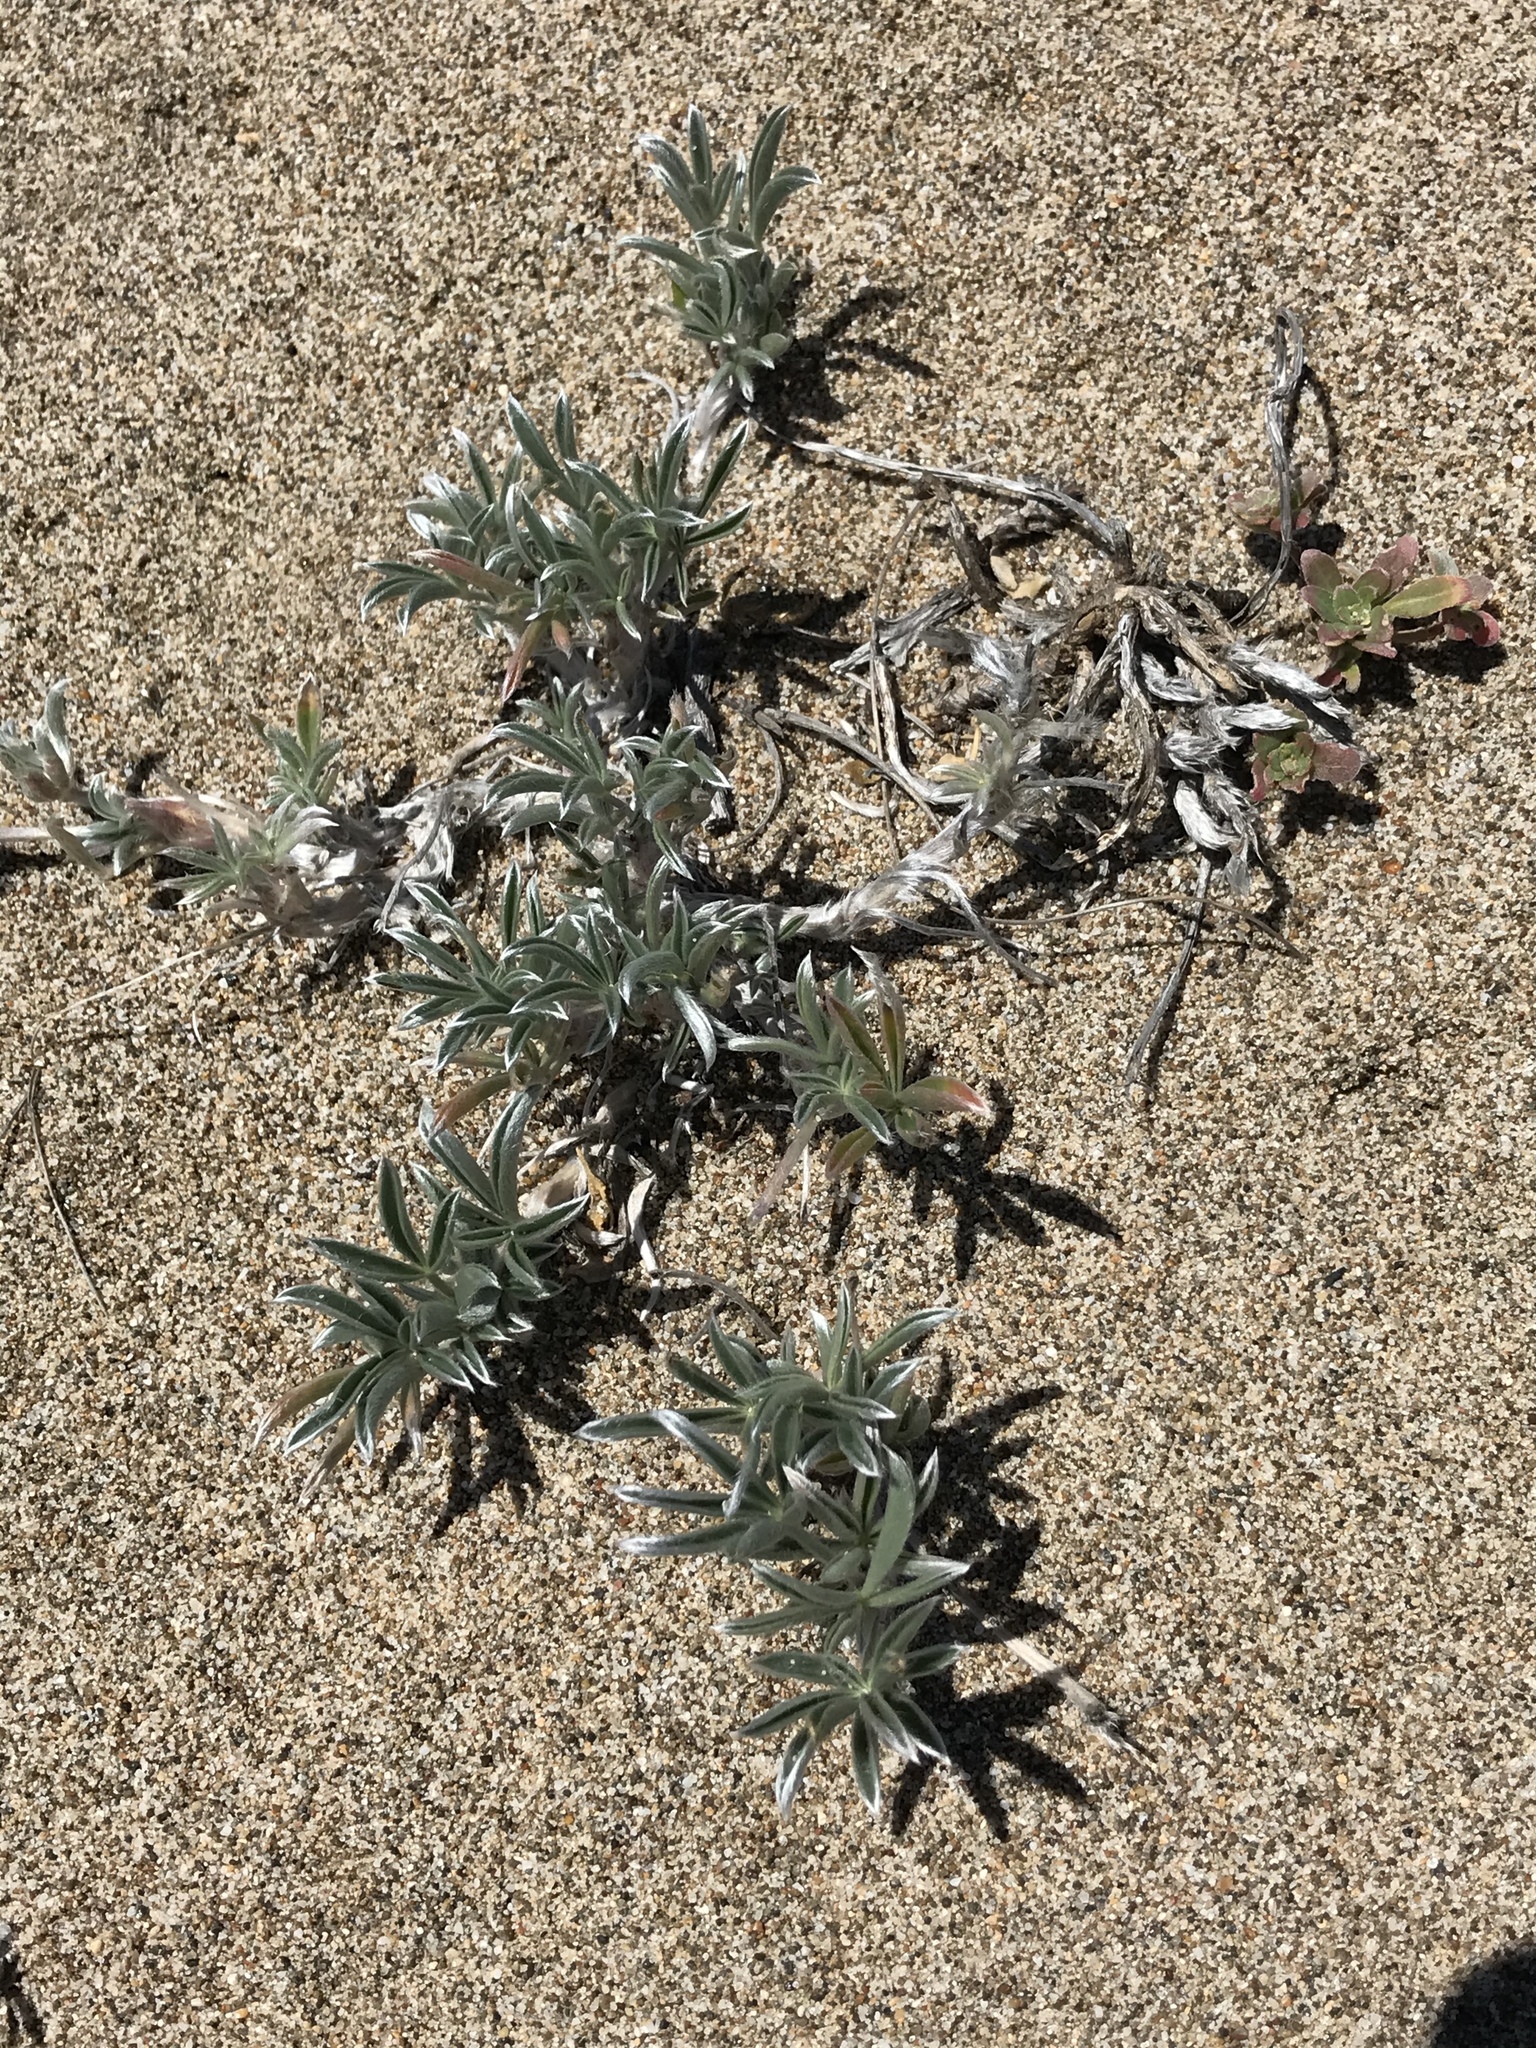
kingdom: Plantae
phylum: Tracheophyta
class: Magnoliopsida
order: Fabales
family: Fabaceae
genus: Lupinus
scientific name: Lupinus tidestromii
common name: Clover lupine
